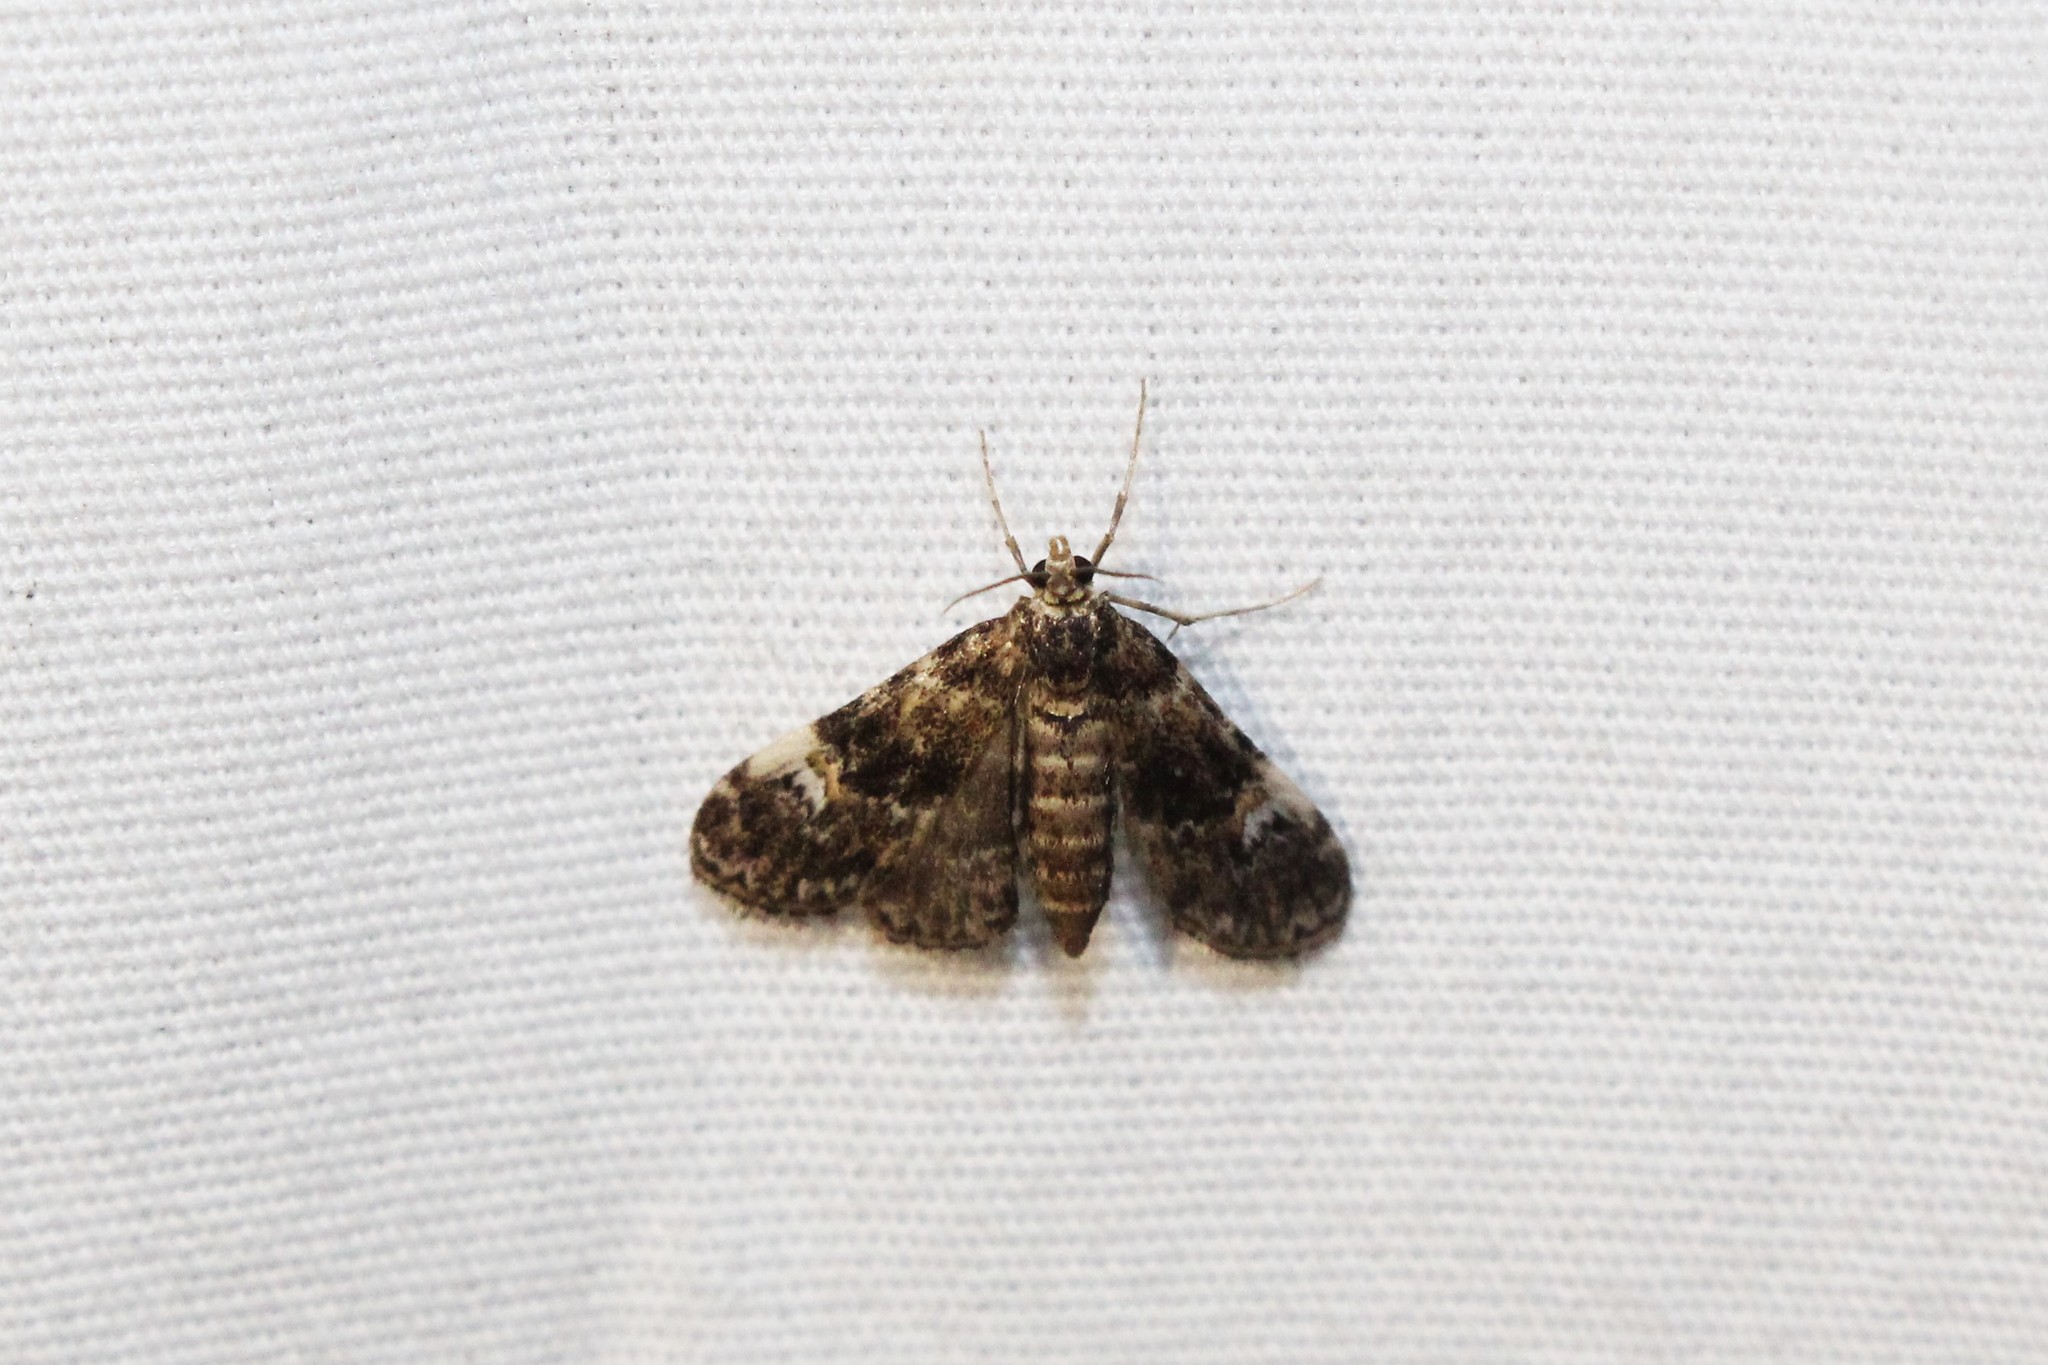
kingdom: Animalia
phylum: Arthropoda
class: Insecta
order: Lepidoptera
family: Crambidae
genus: Elophila
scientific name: Elophila obliteralis
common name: Waterlily leafcutter moth
